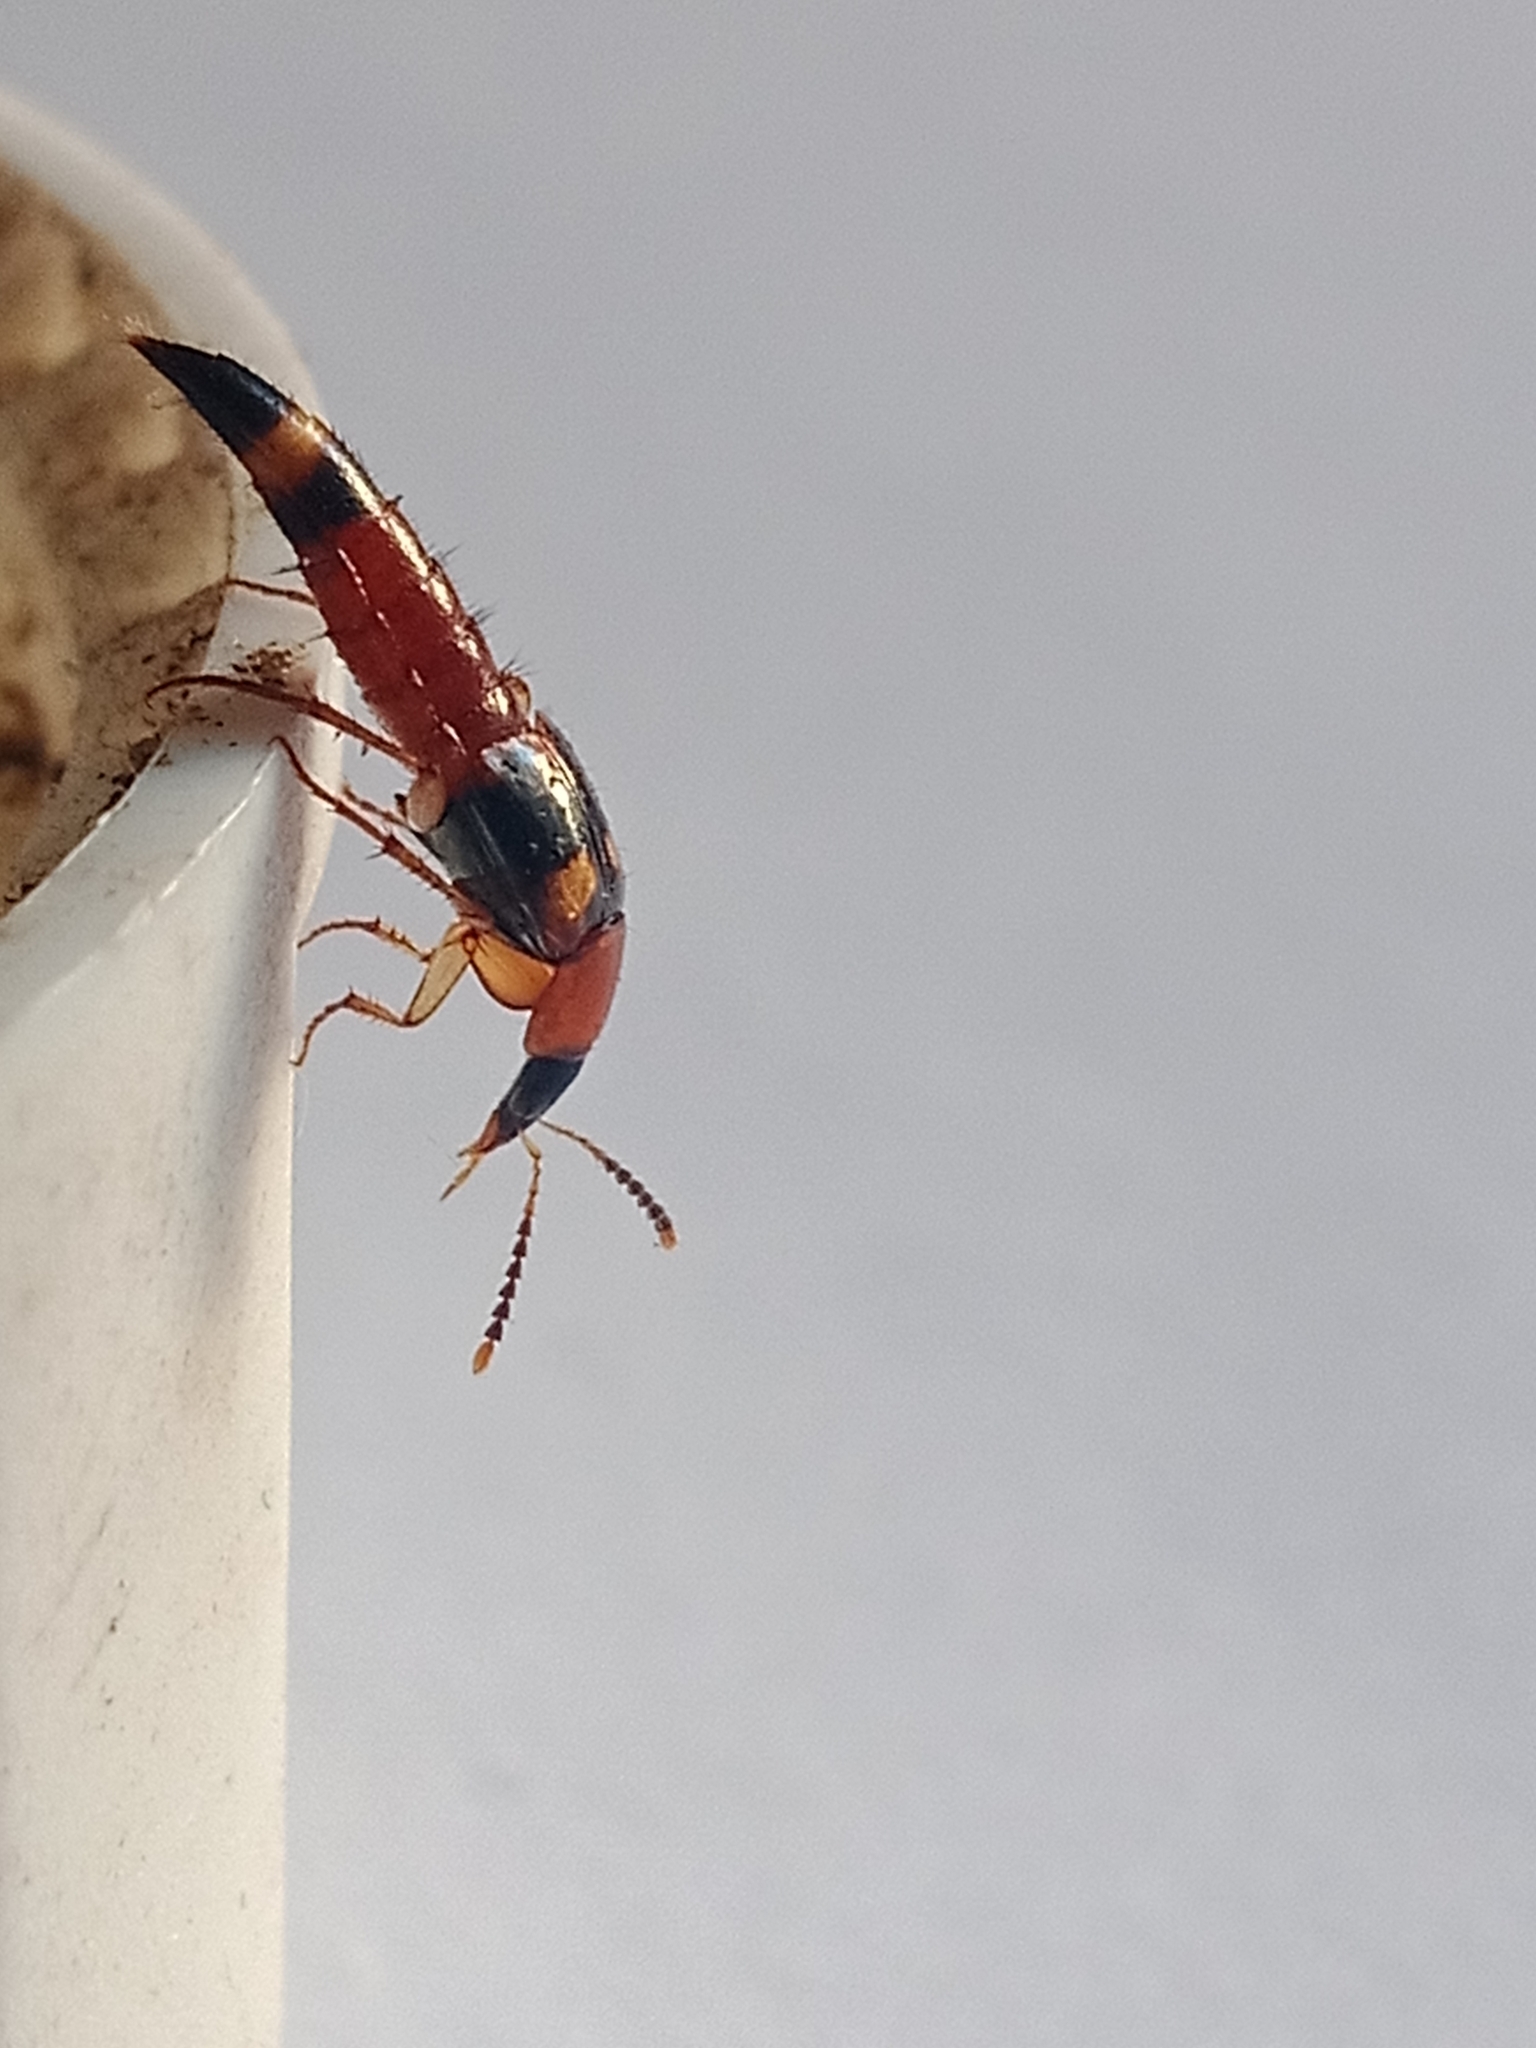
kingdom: Animalia
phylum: Arthropoda
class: Insecta
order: Coleoptera
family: Staphylinidae
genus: Bobitobus
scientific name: Bobitobus lunulatus
